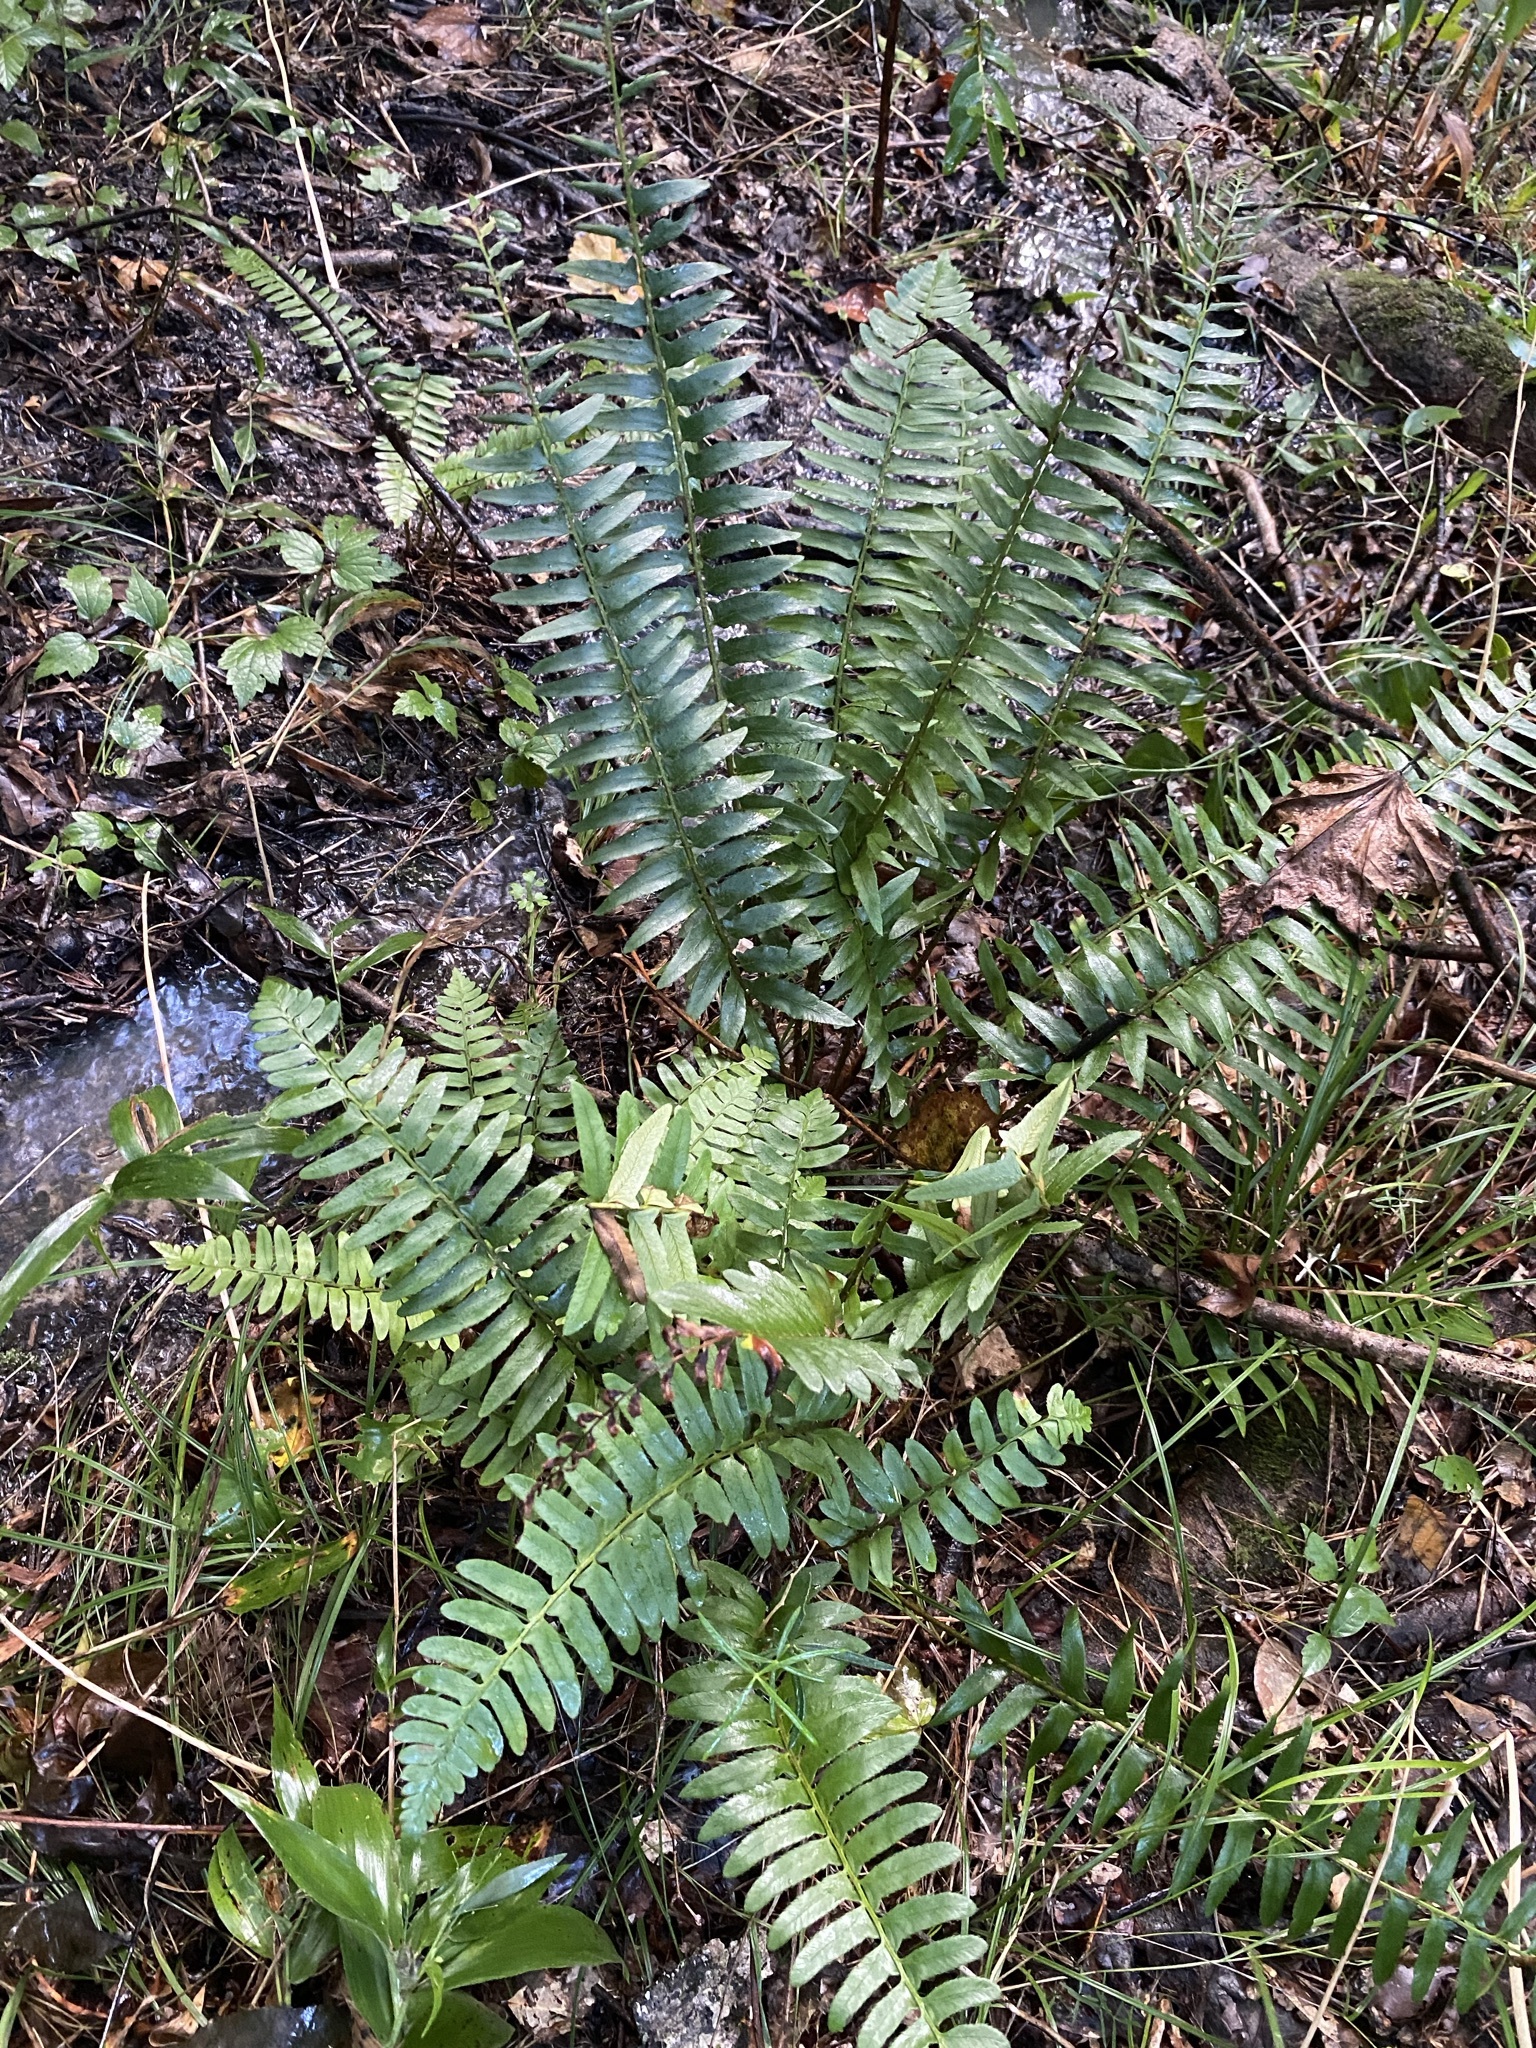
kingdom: Plantae
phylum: Tracheophyta
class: Polypodiopsida
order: Polypodiales
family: Dryopteridaceae
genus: Polystichum
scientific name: Polystichum acrostichoides
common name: Christmas fern
